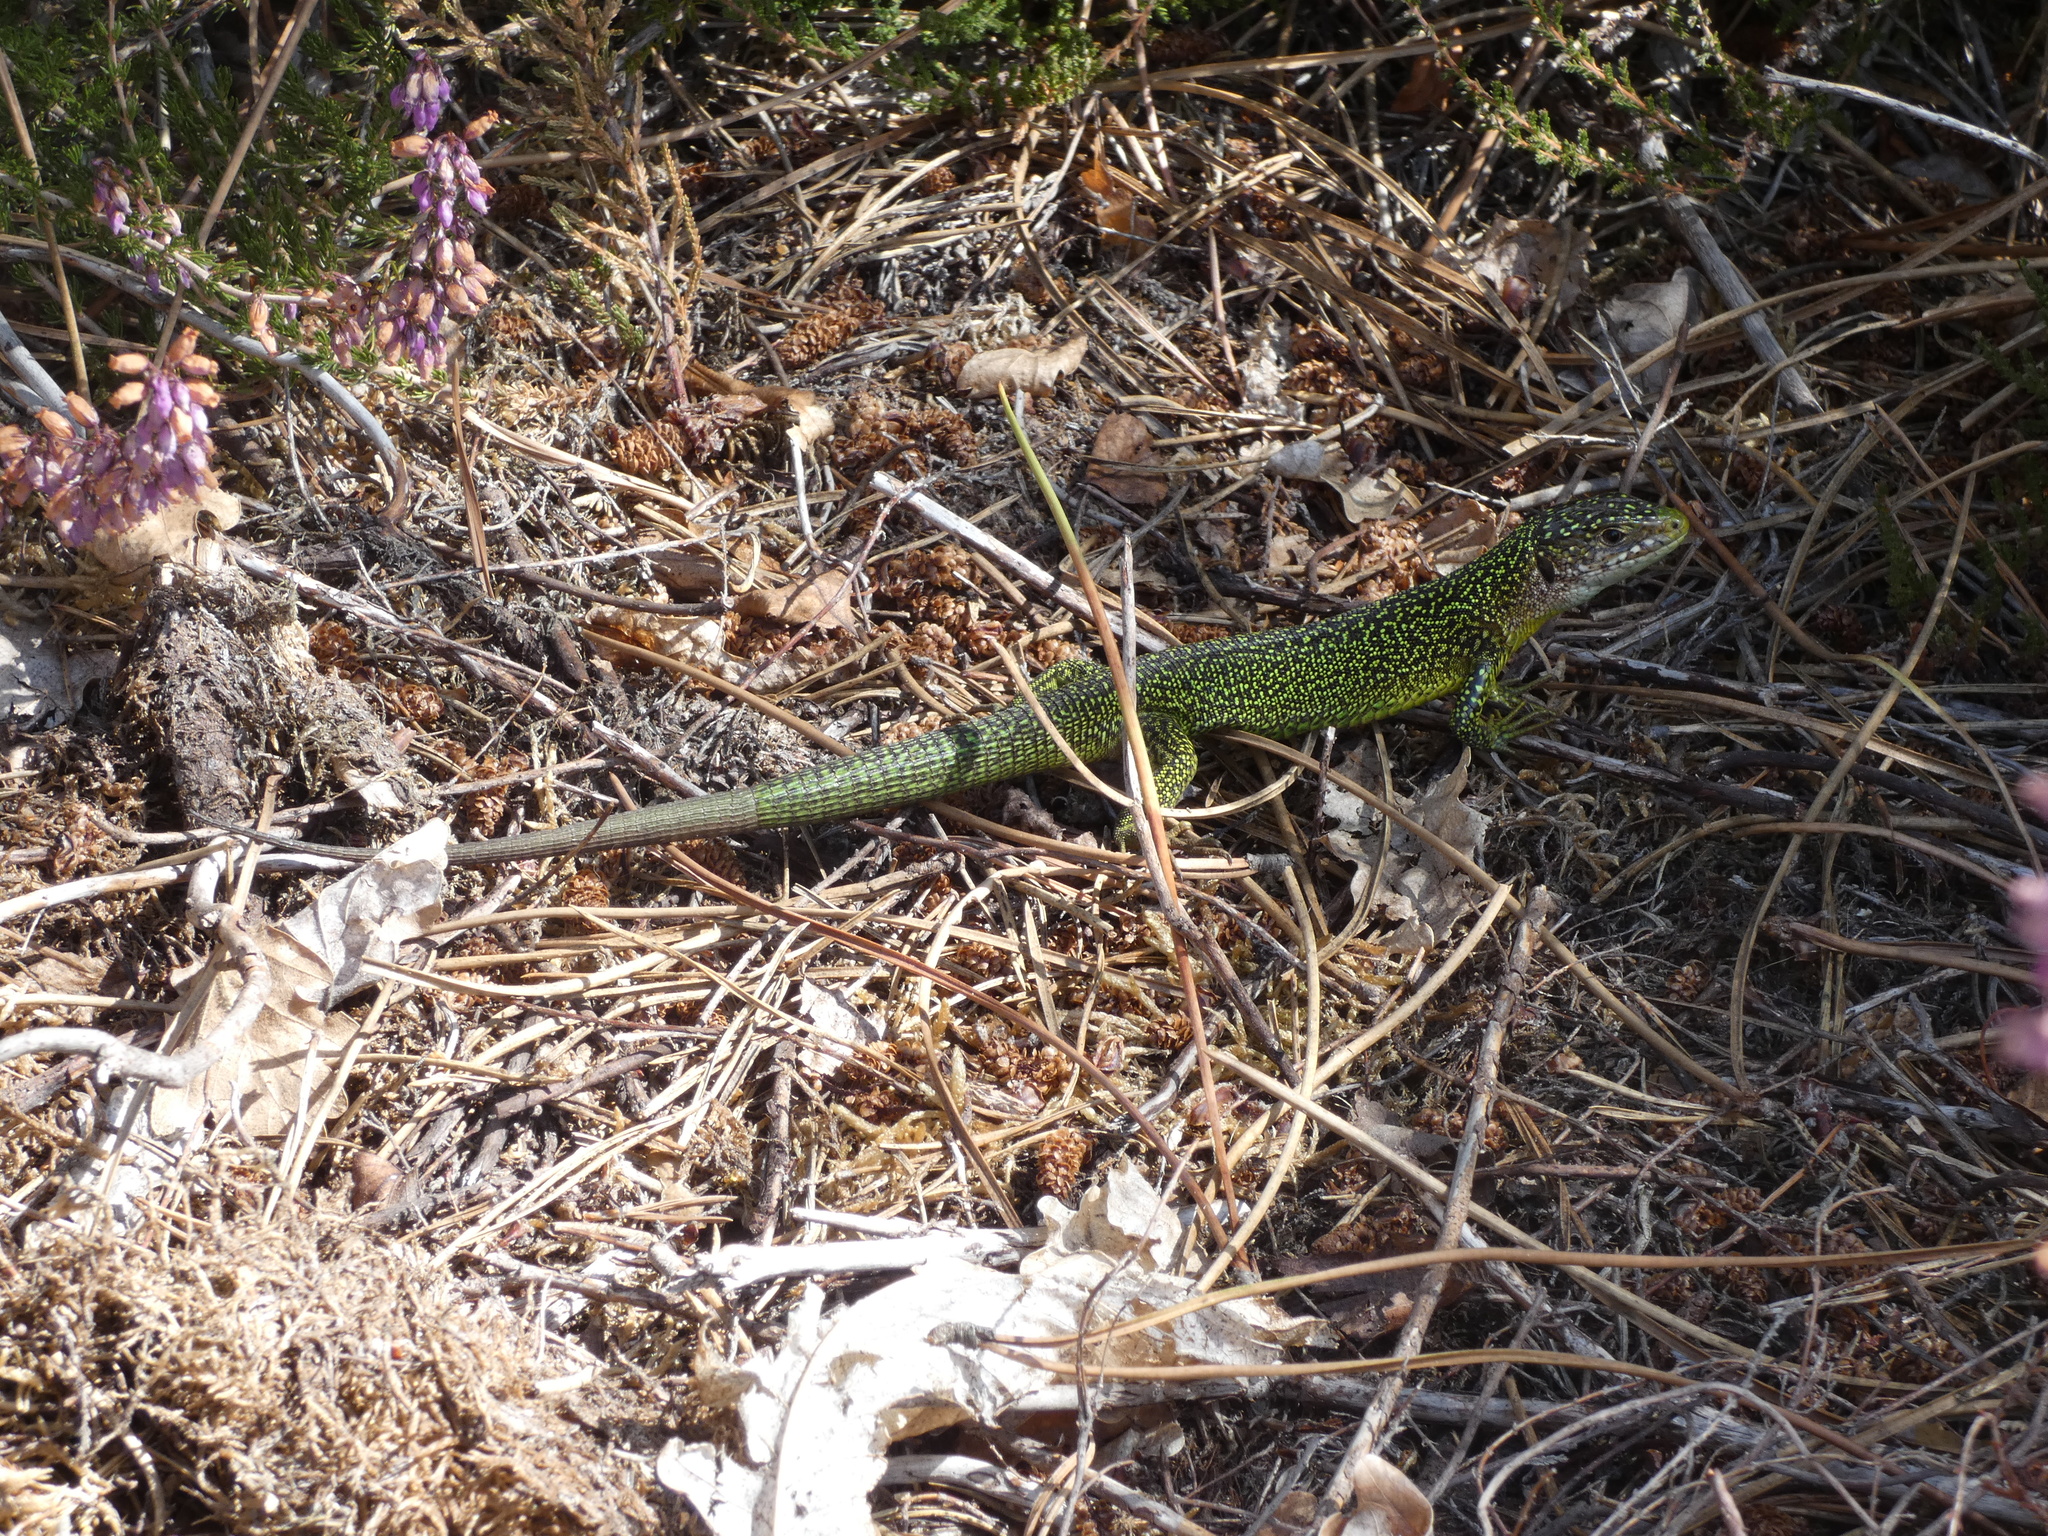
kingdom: Animalia
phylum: Chordata
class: Squamata
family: Lacertidae
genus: Lacerta
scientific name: Lacerta bilineata
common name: Western green lizard
